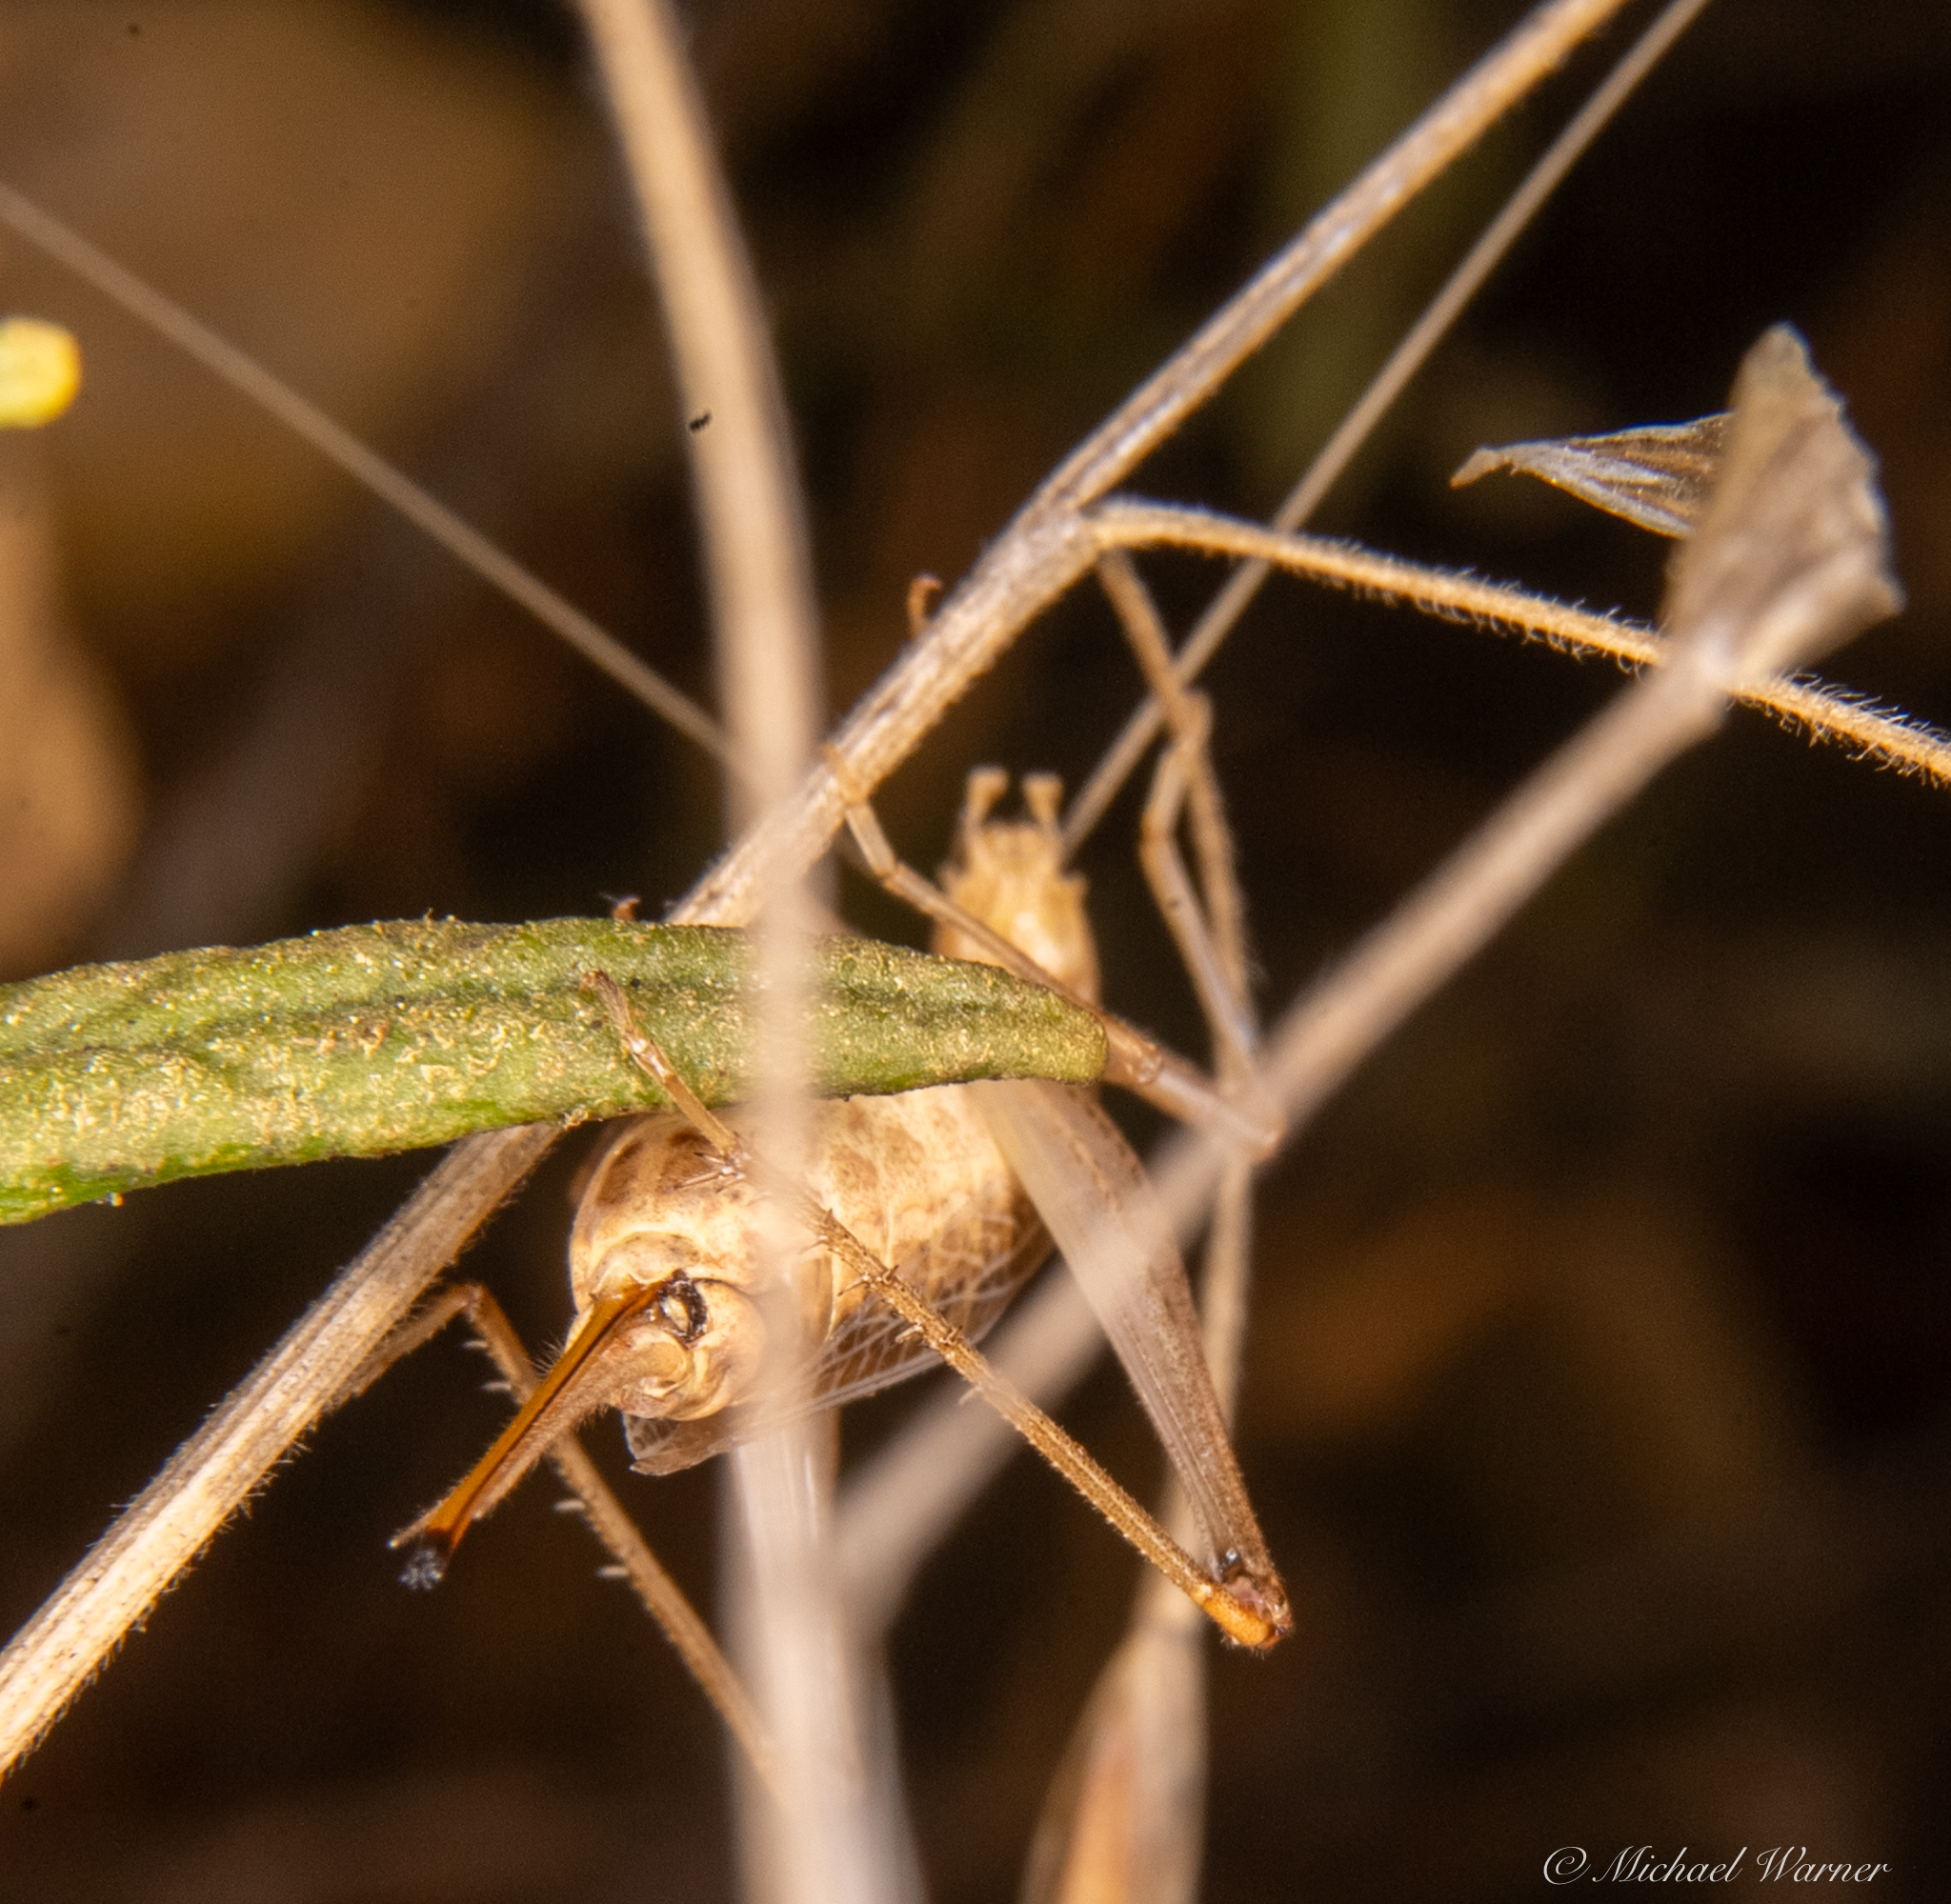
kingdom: Animalia
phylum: Arthropoda
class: Insecta
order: Orthoptera
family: Gryllidae
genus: Oecanthus
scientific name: Oecanthus californicus
